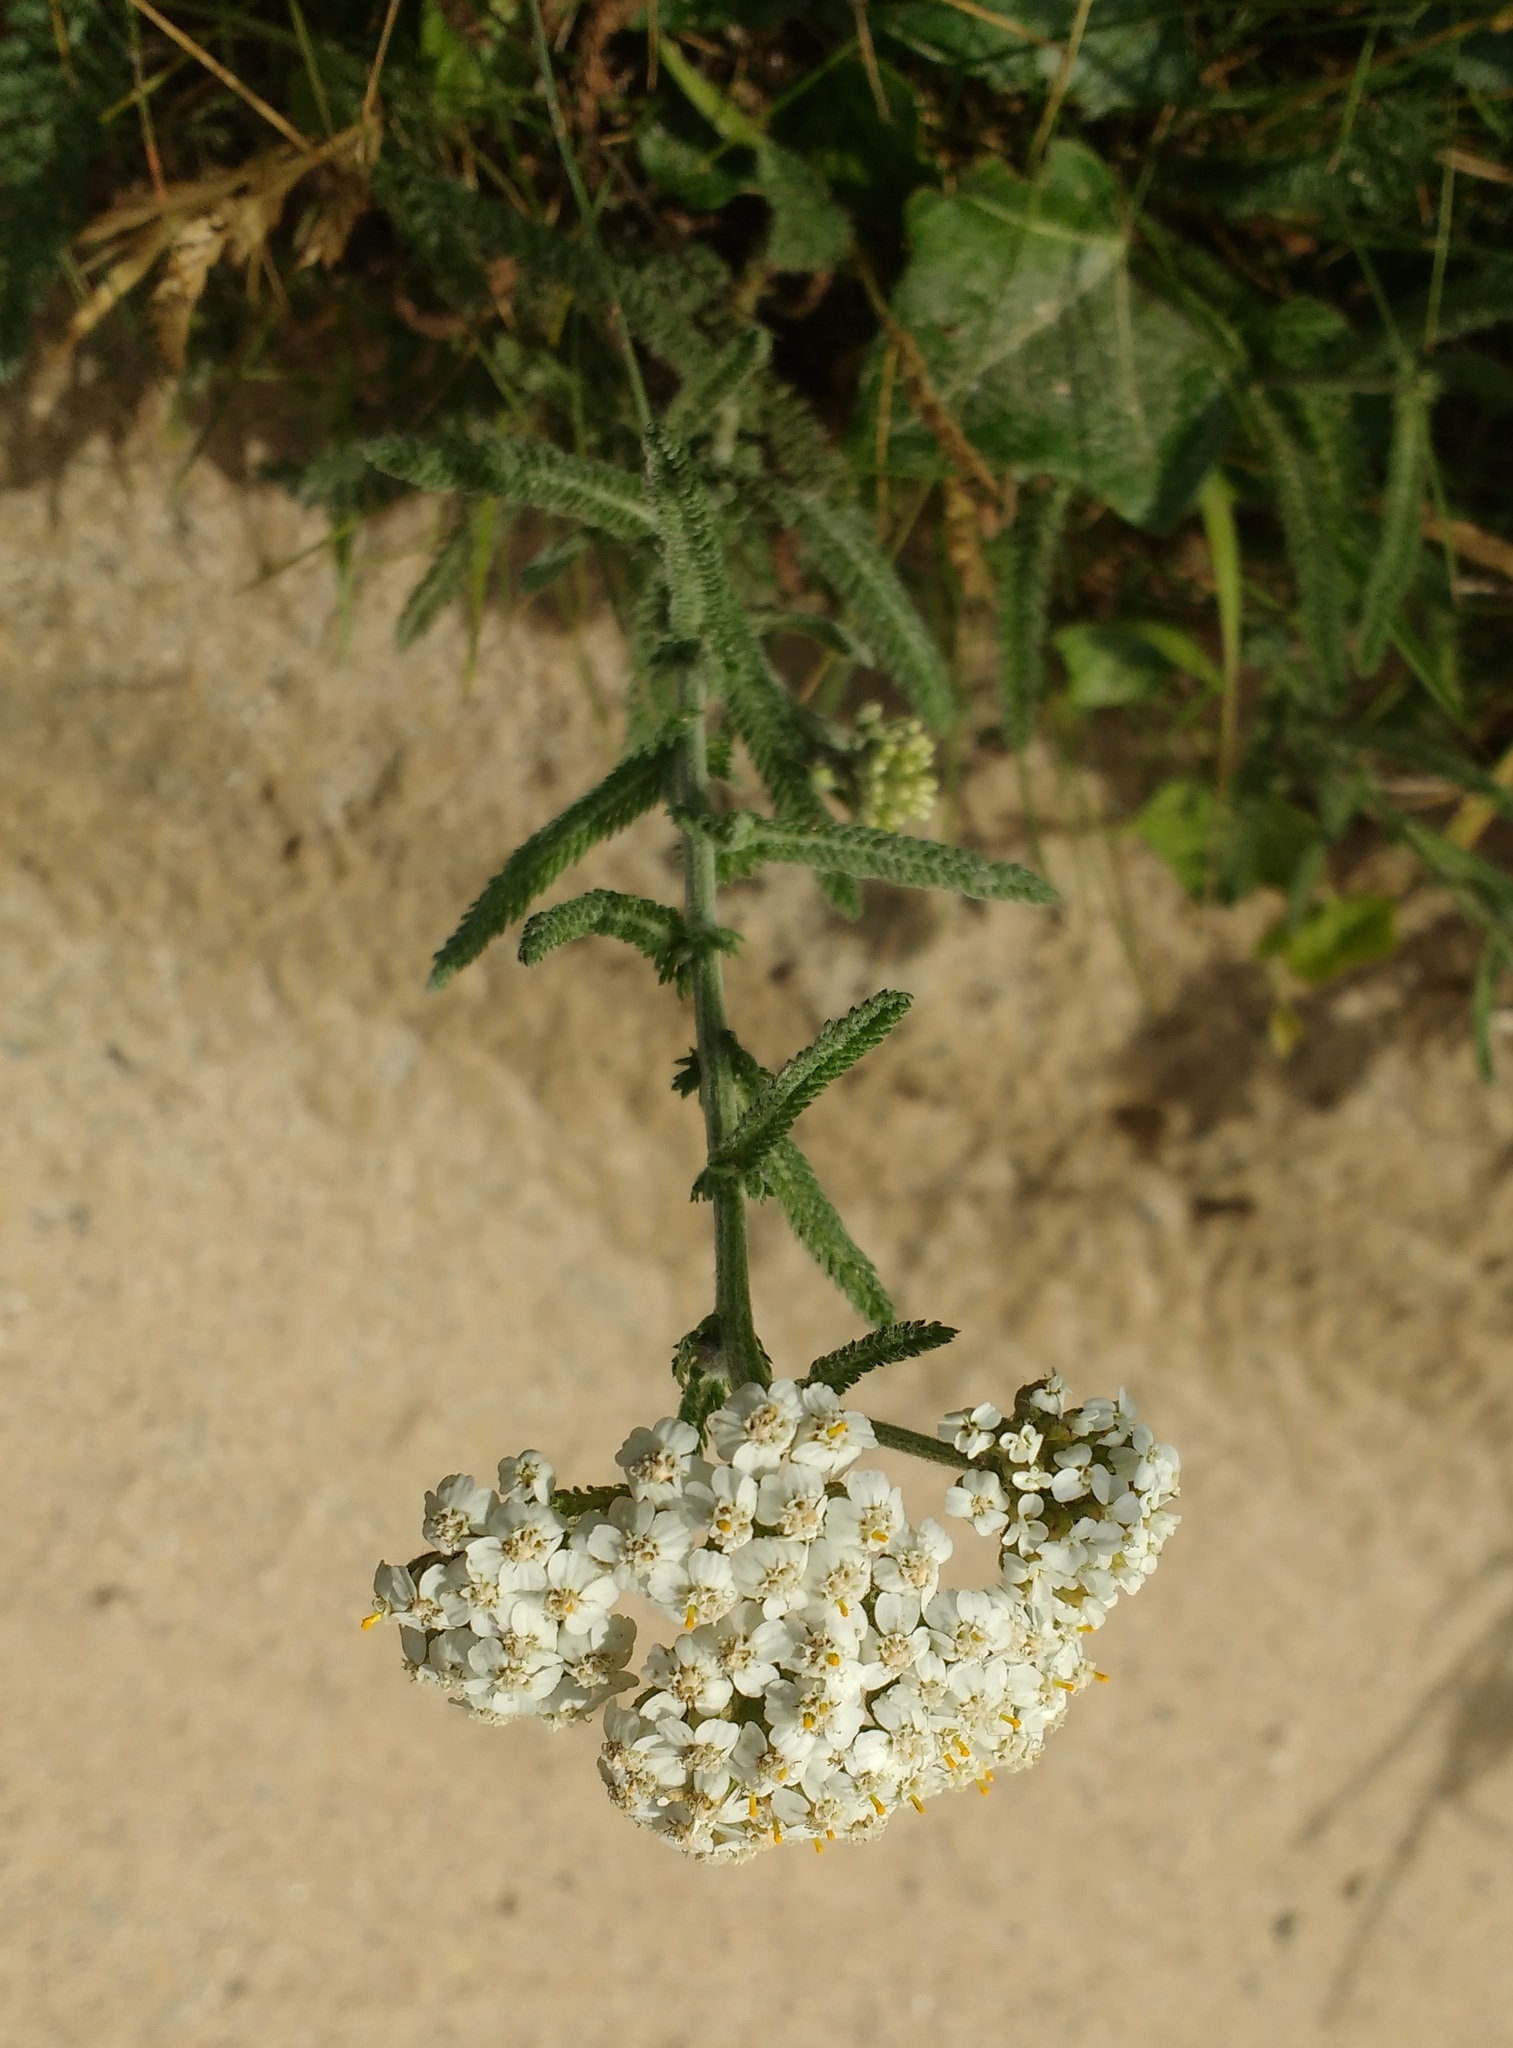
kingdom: Plantae
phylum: Tracheophyta
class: Magnoliopsida
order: Asterales
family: Asteraceae
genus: Achillea
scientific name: Achillea millefolium
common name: Yarrow
